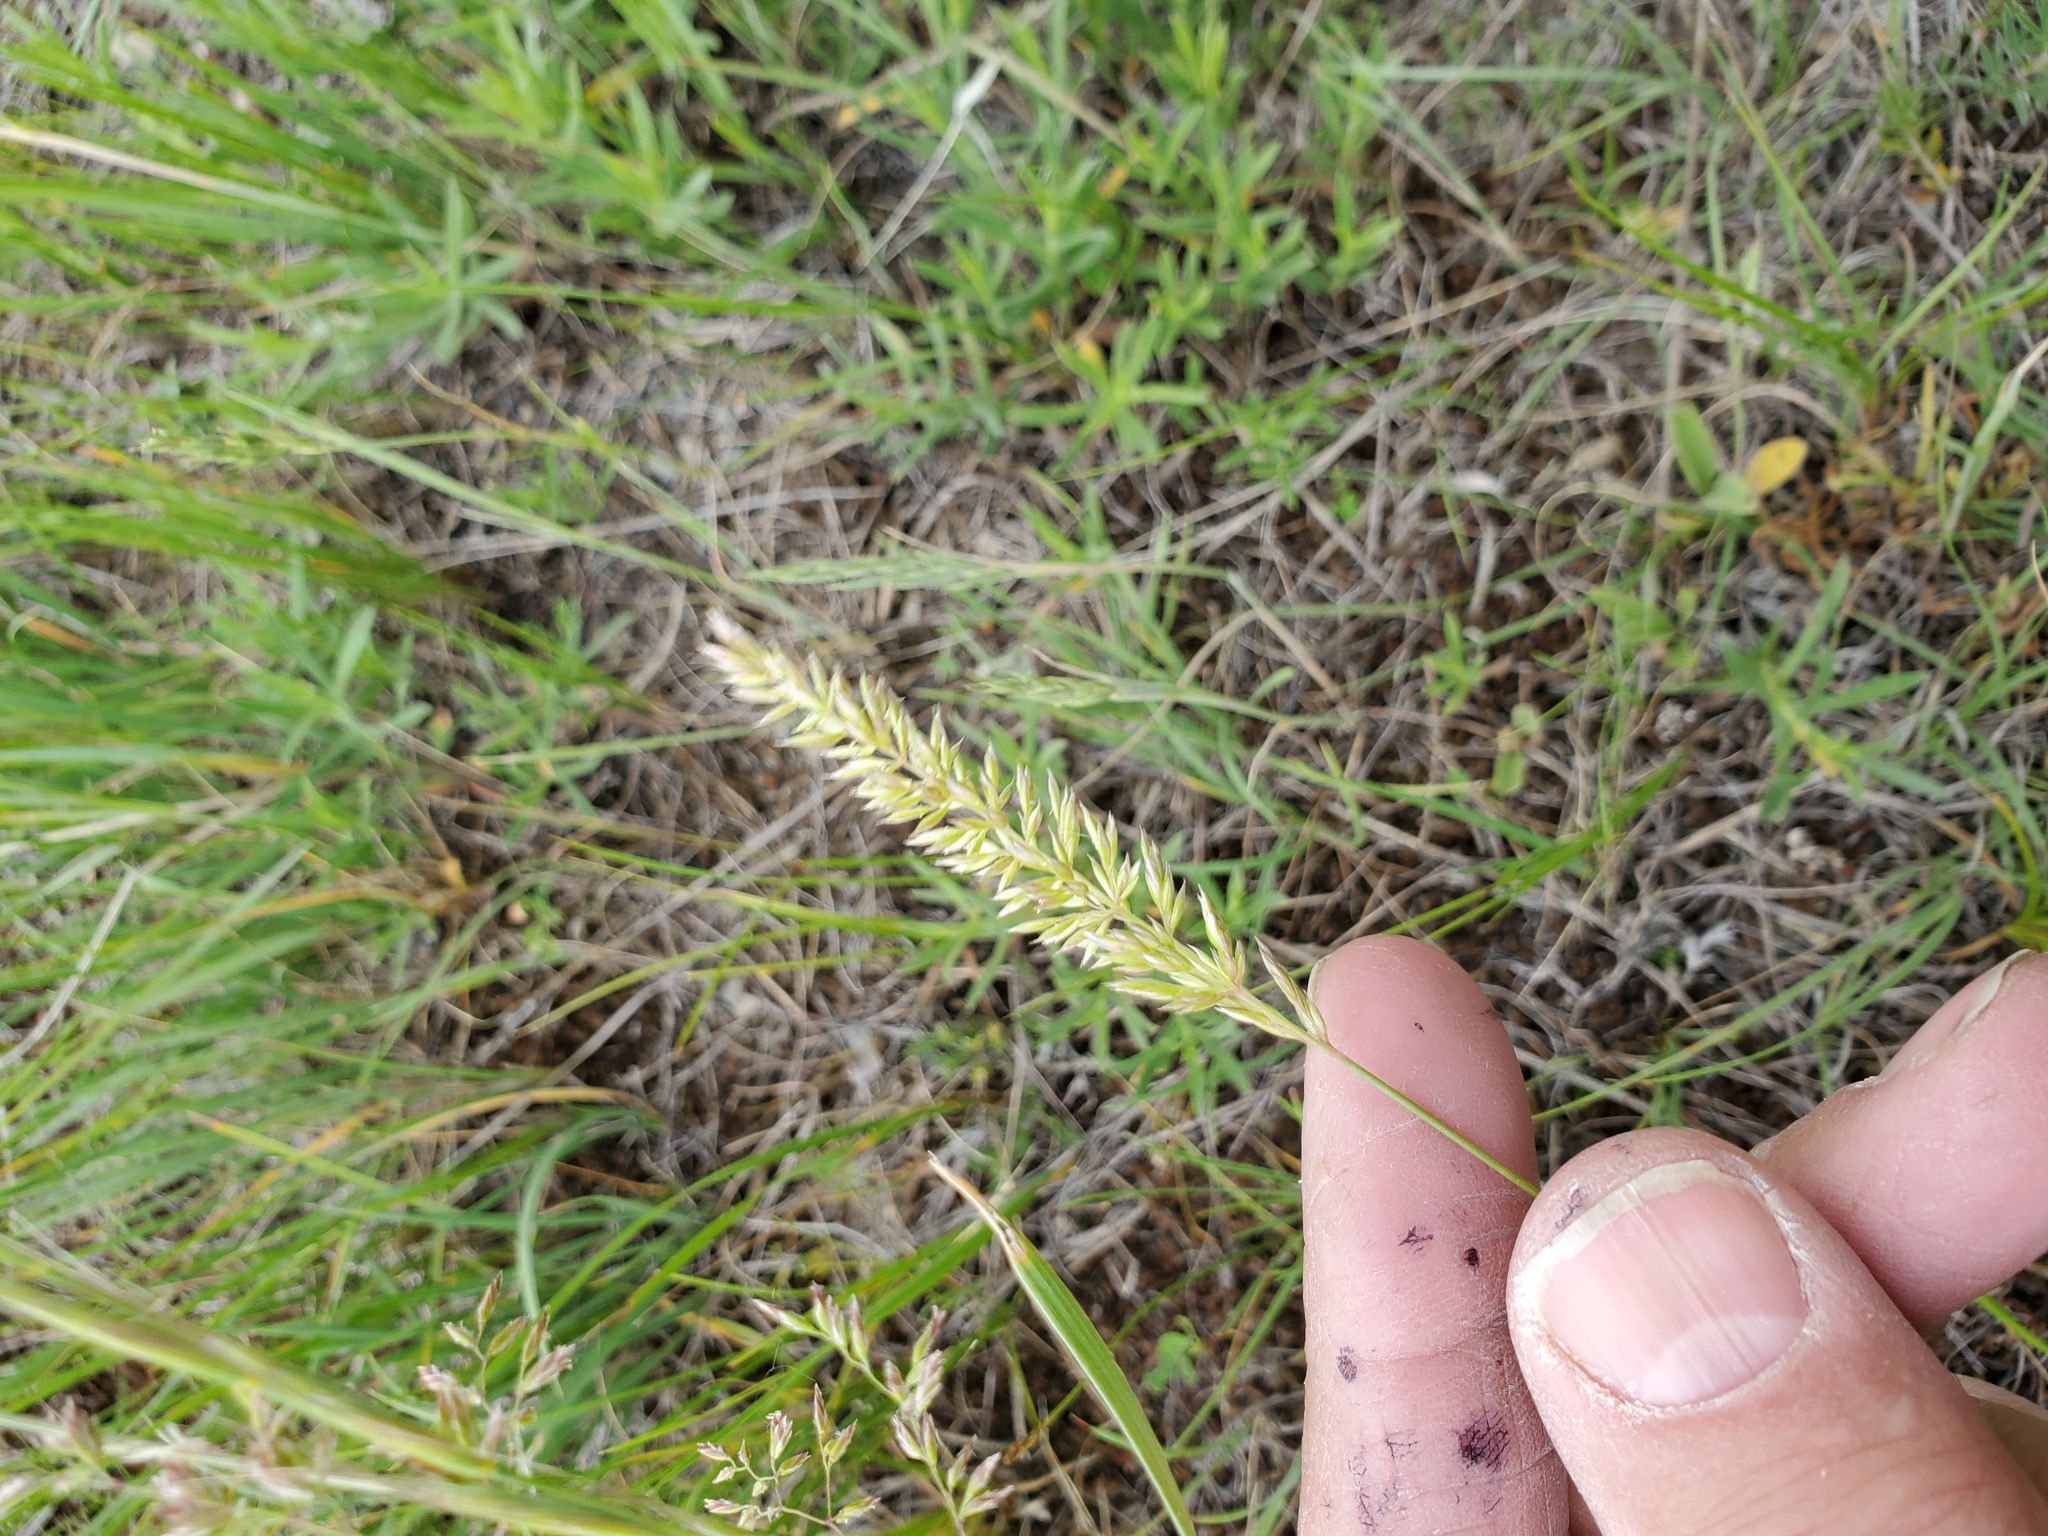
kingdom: Plantae
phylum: Tracheophyta
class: Liliopsida
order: Poales
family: Poaceae
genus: Koeleria
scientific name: Koeleria macrantha
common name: Crested hair-grass
